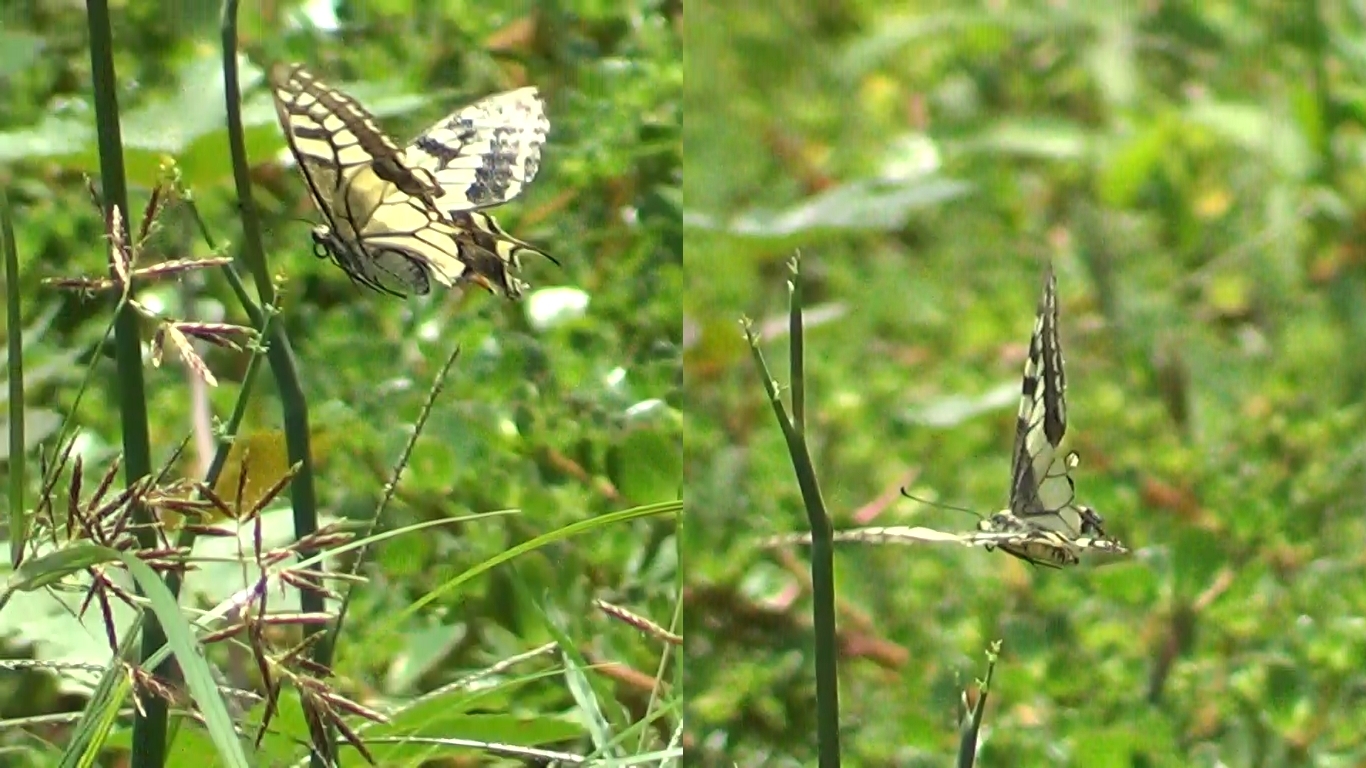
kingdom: Animalia
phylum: Arthropoda
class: Insecta
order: Lepidoptera
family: Papilionidae
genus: Papilio
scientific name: Papilio machaon
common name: Swallowtail
